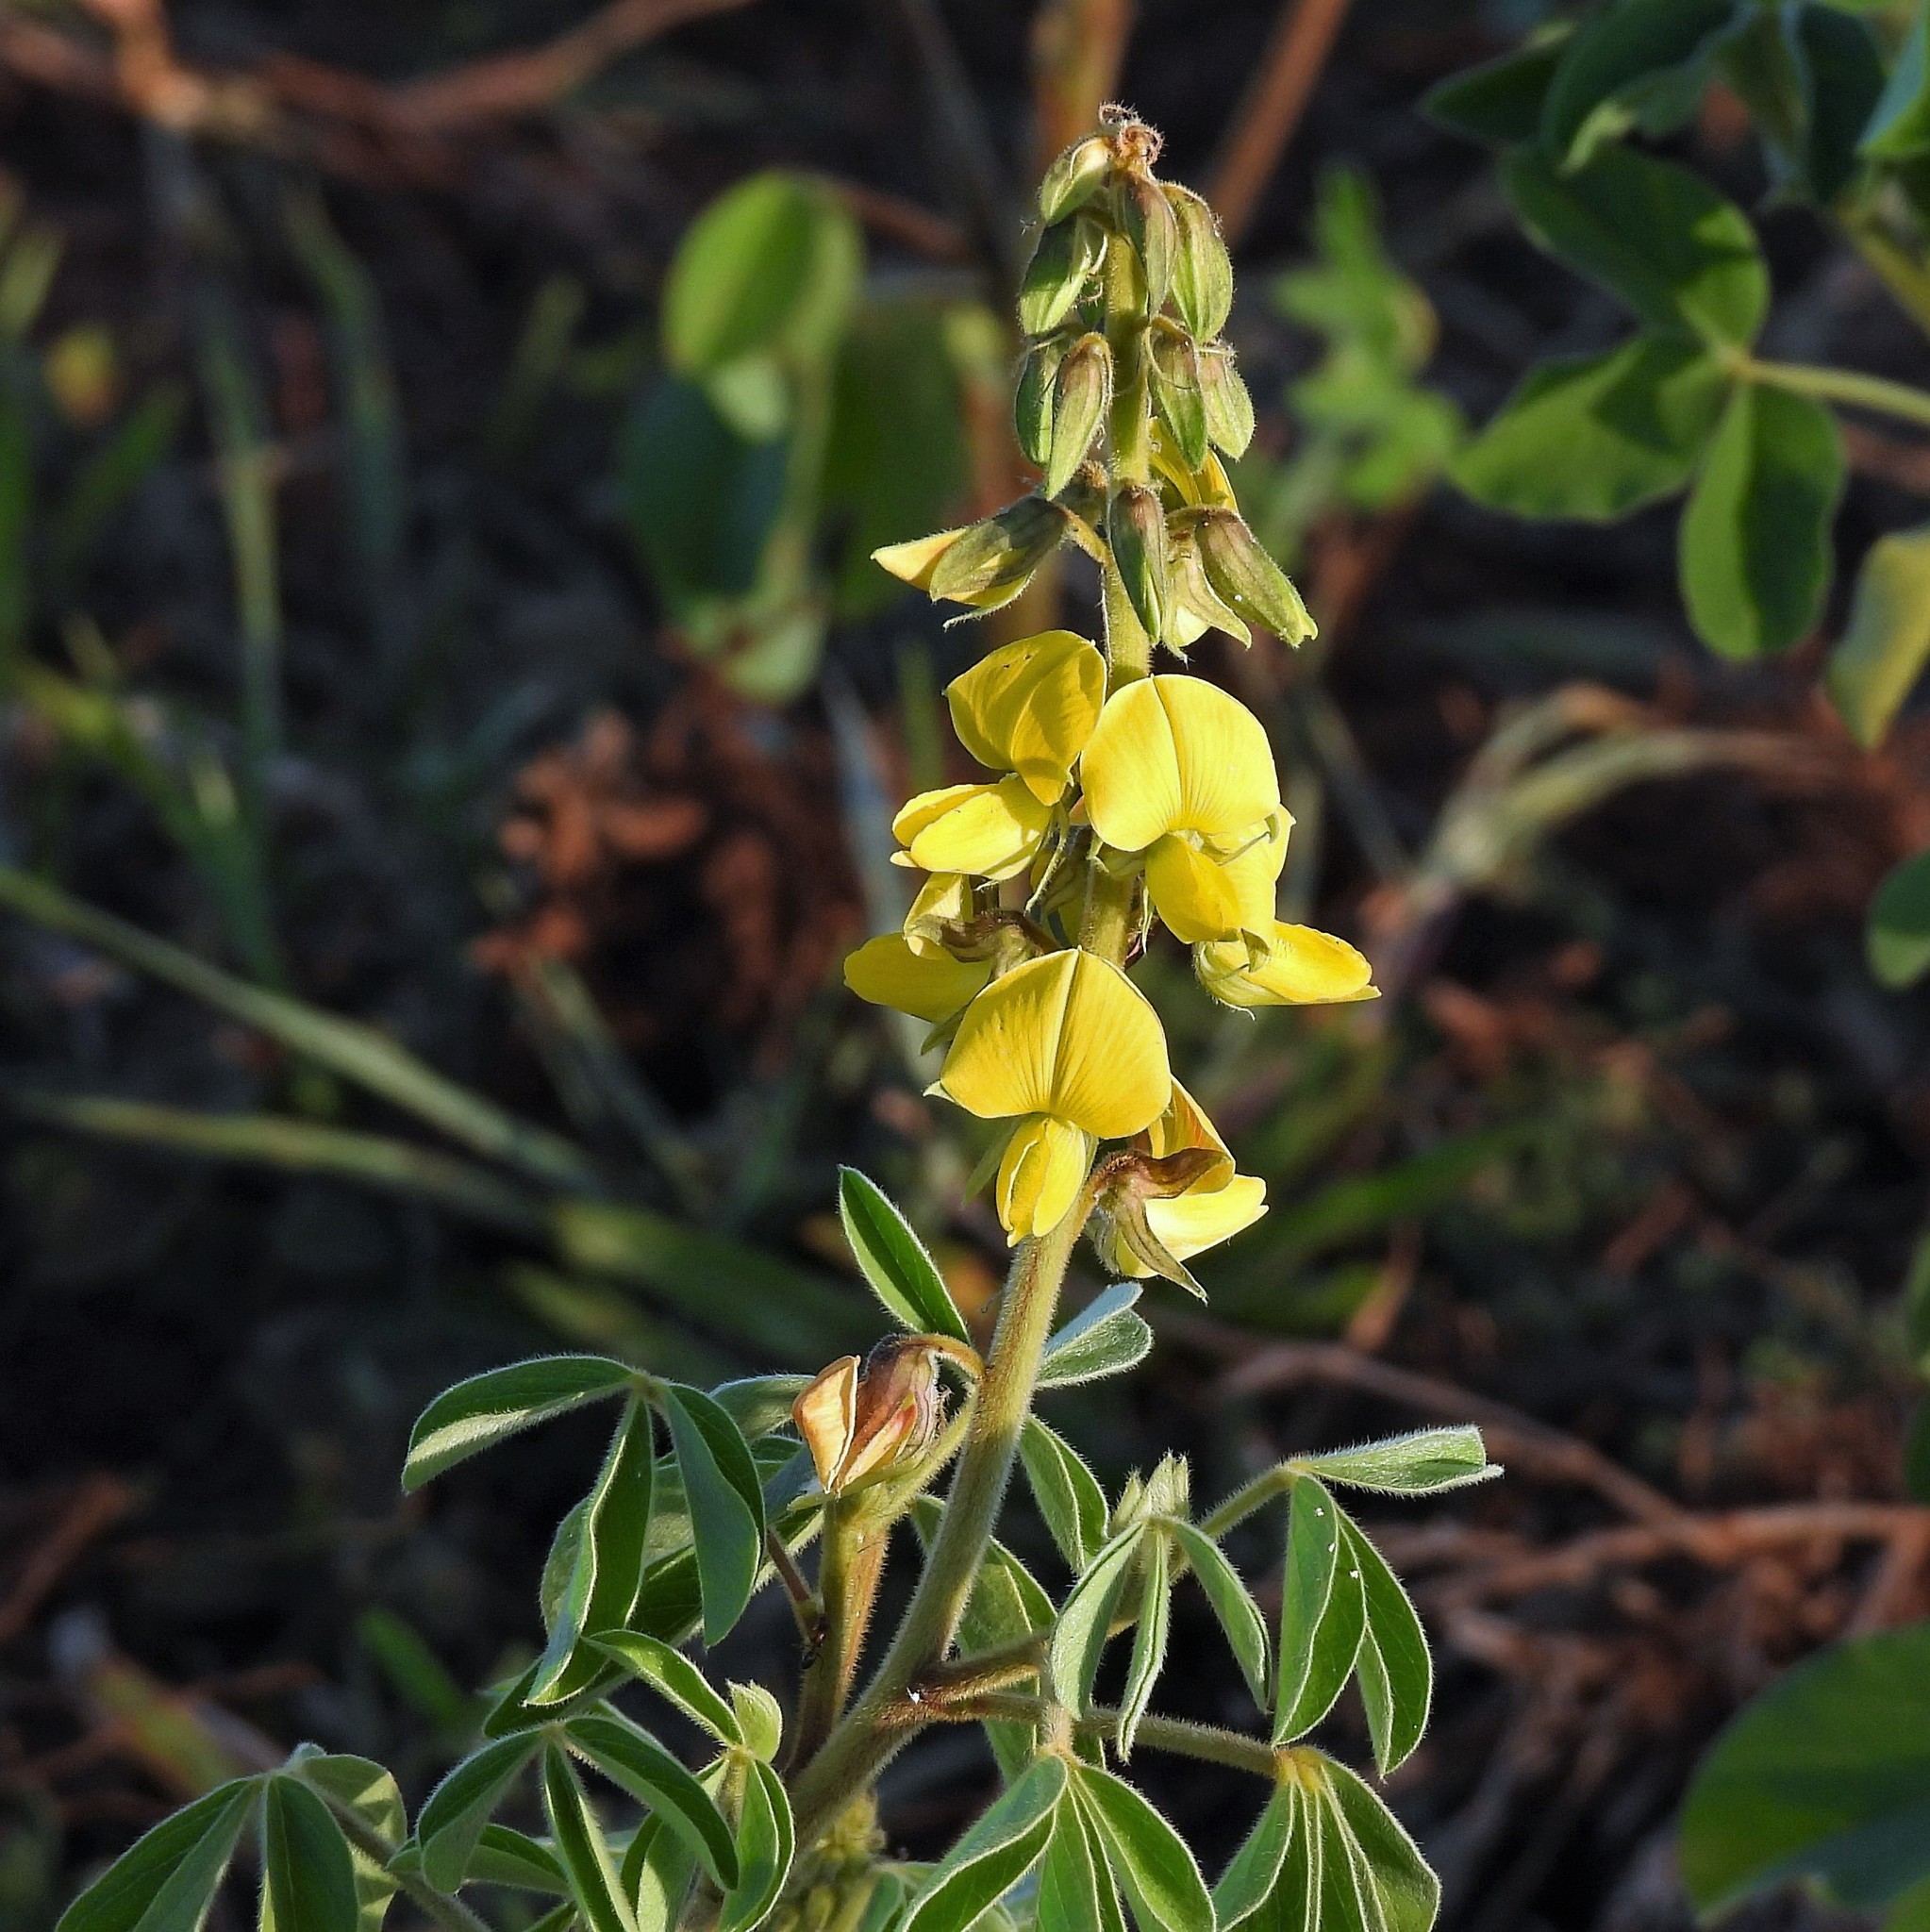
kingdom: Plantae
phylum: Tracheophyta
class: Magnoliopsida
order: Fabales
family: Fabaceae
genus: Crotalaria
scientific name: Crotalaria incana
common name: Shakeshake
